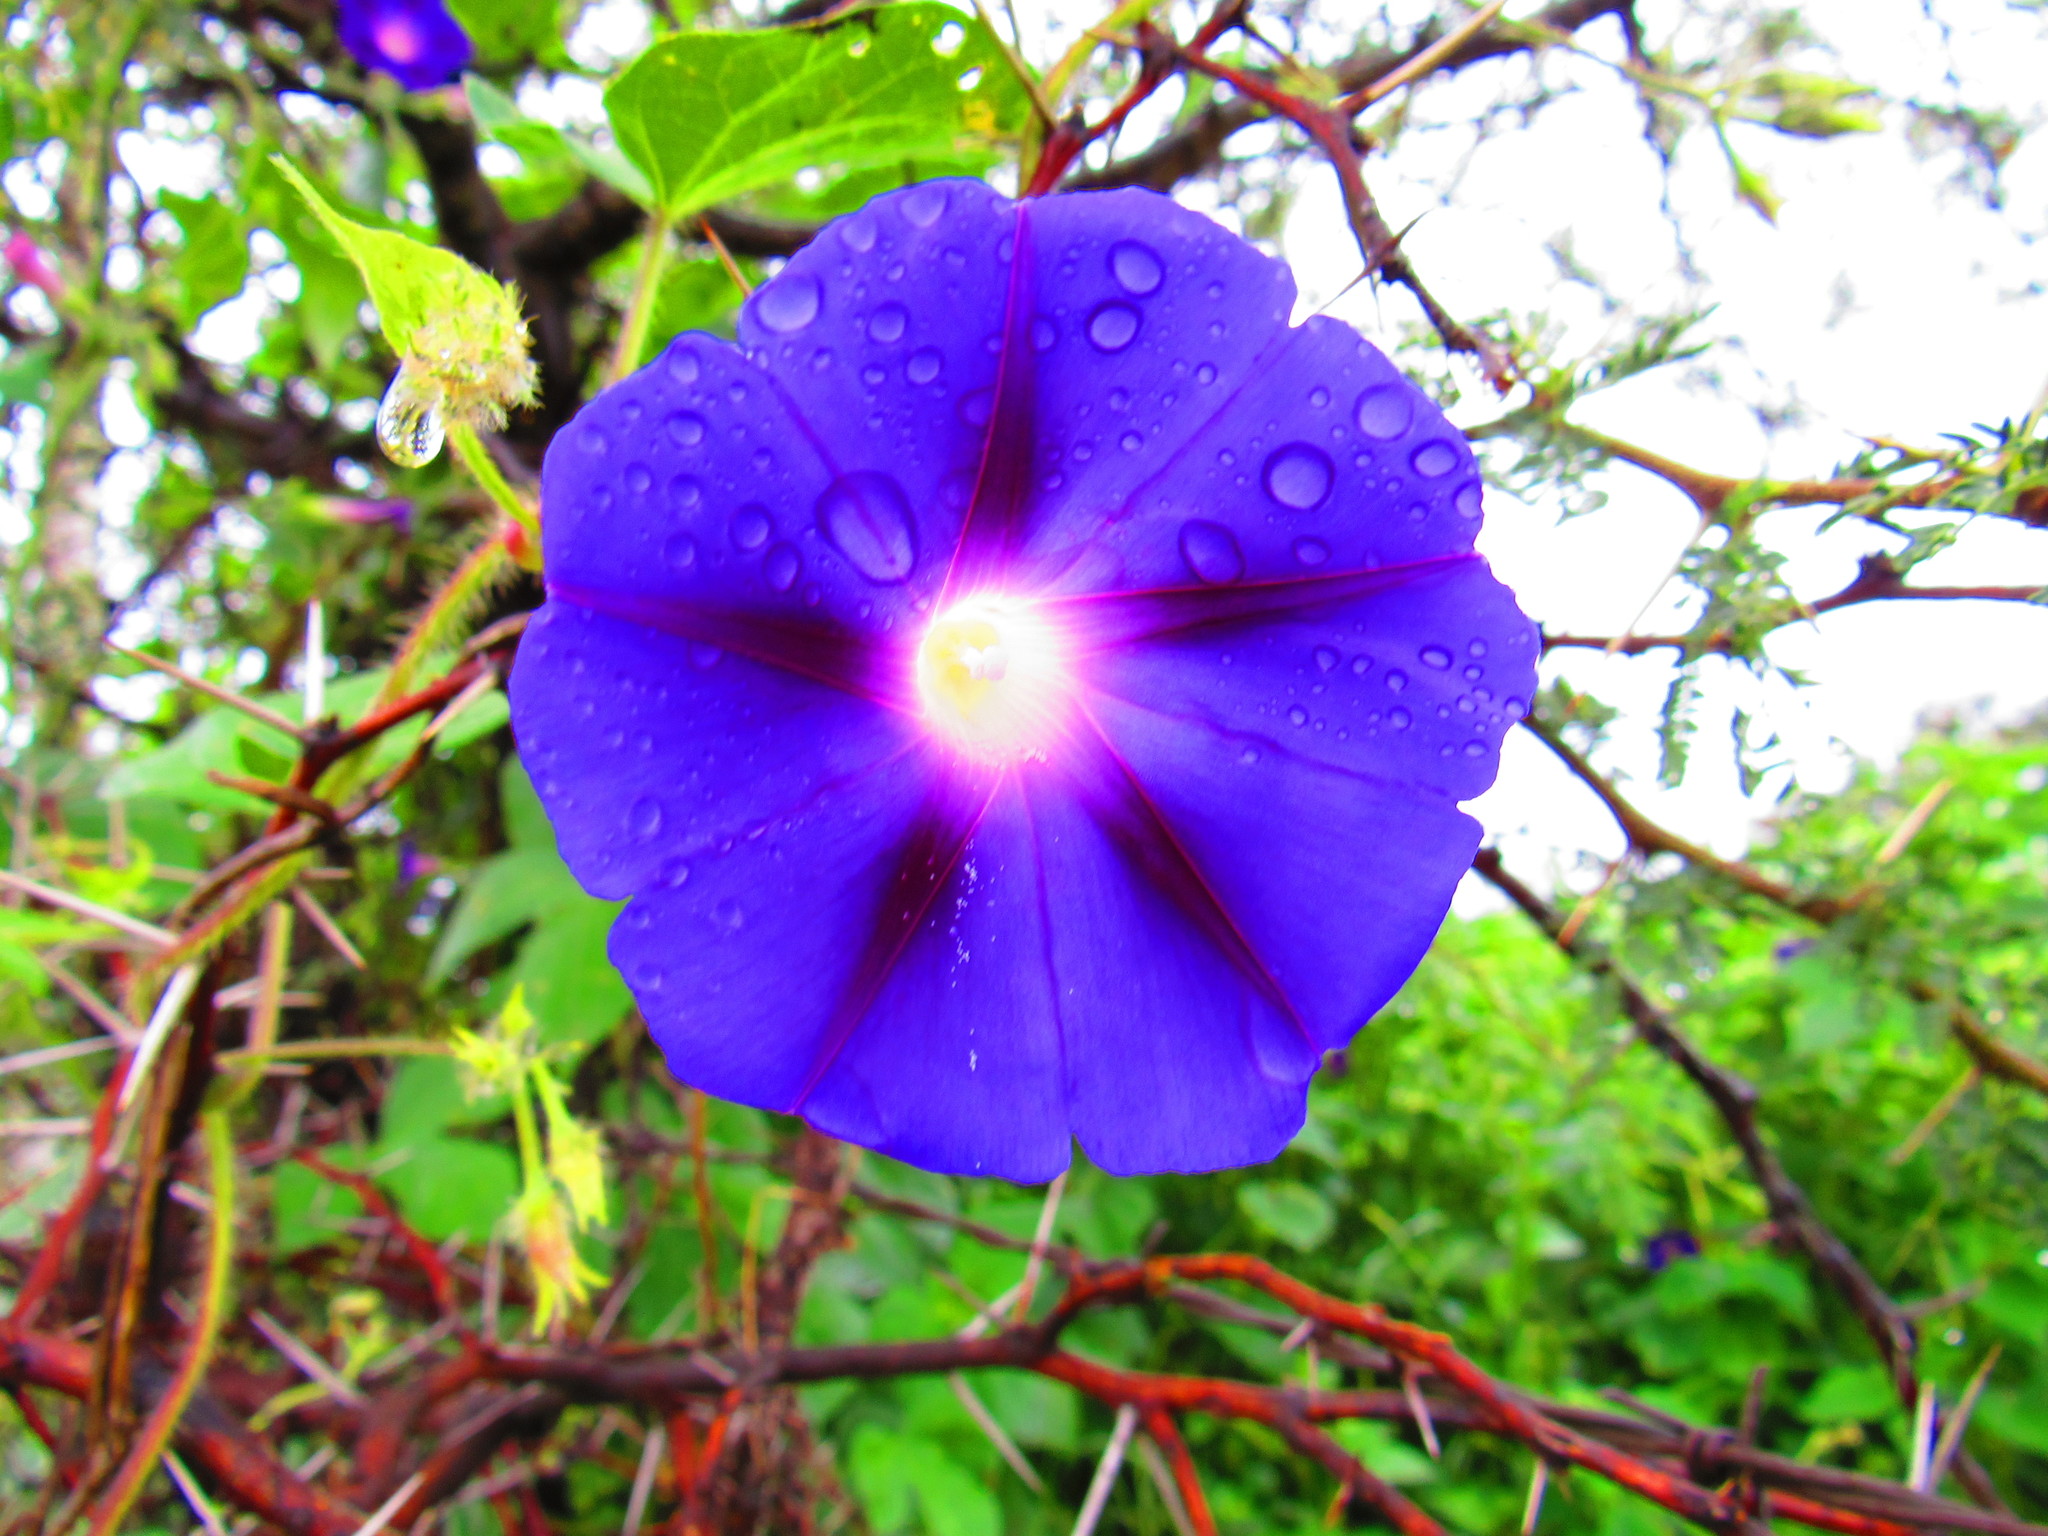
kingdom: Plantae
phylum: Tracheophyta
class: Magnoliopsida
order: Solanales
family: Convolvulaceae
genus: Ipomoea
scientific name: Ipomoea purpurea
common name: Common morning-glory
